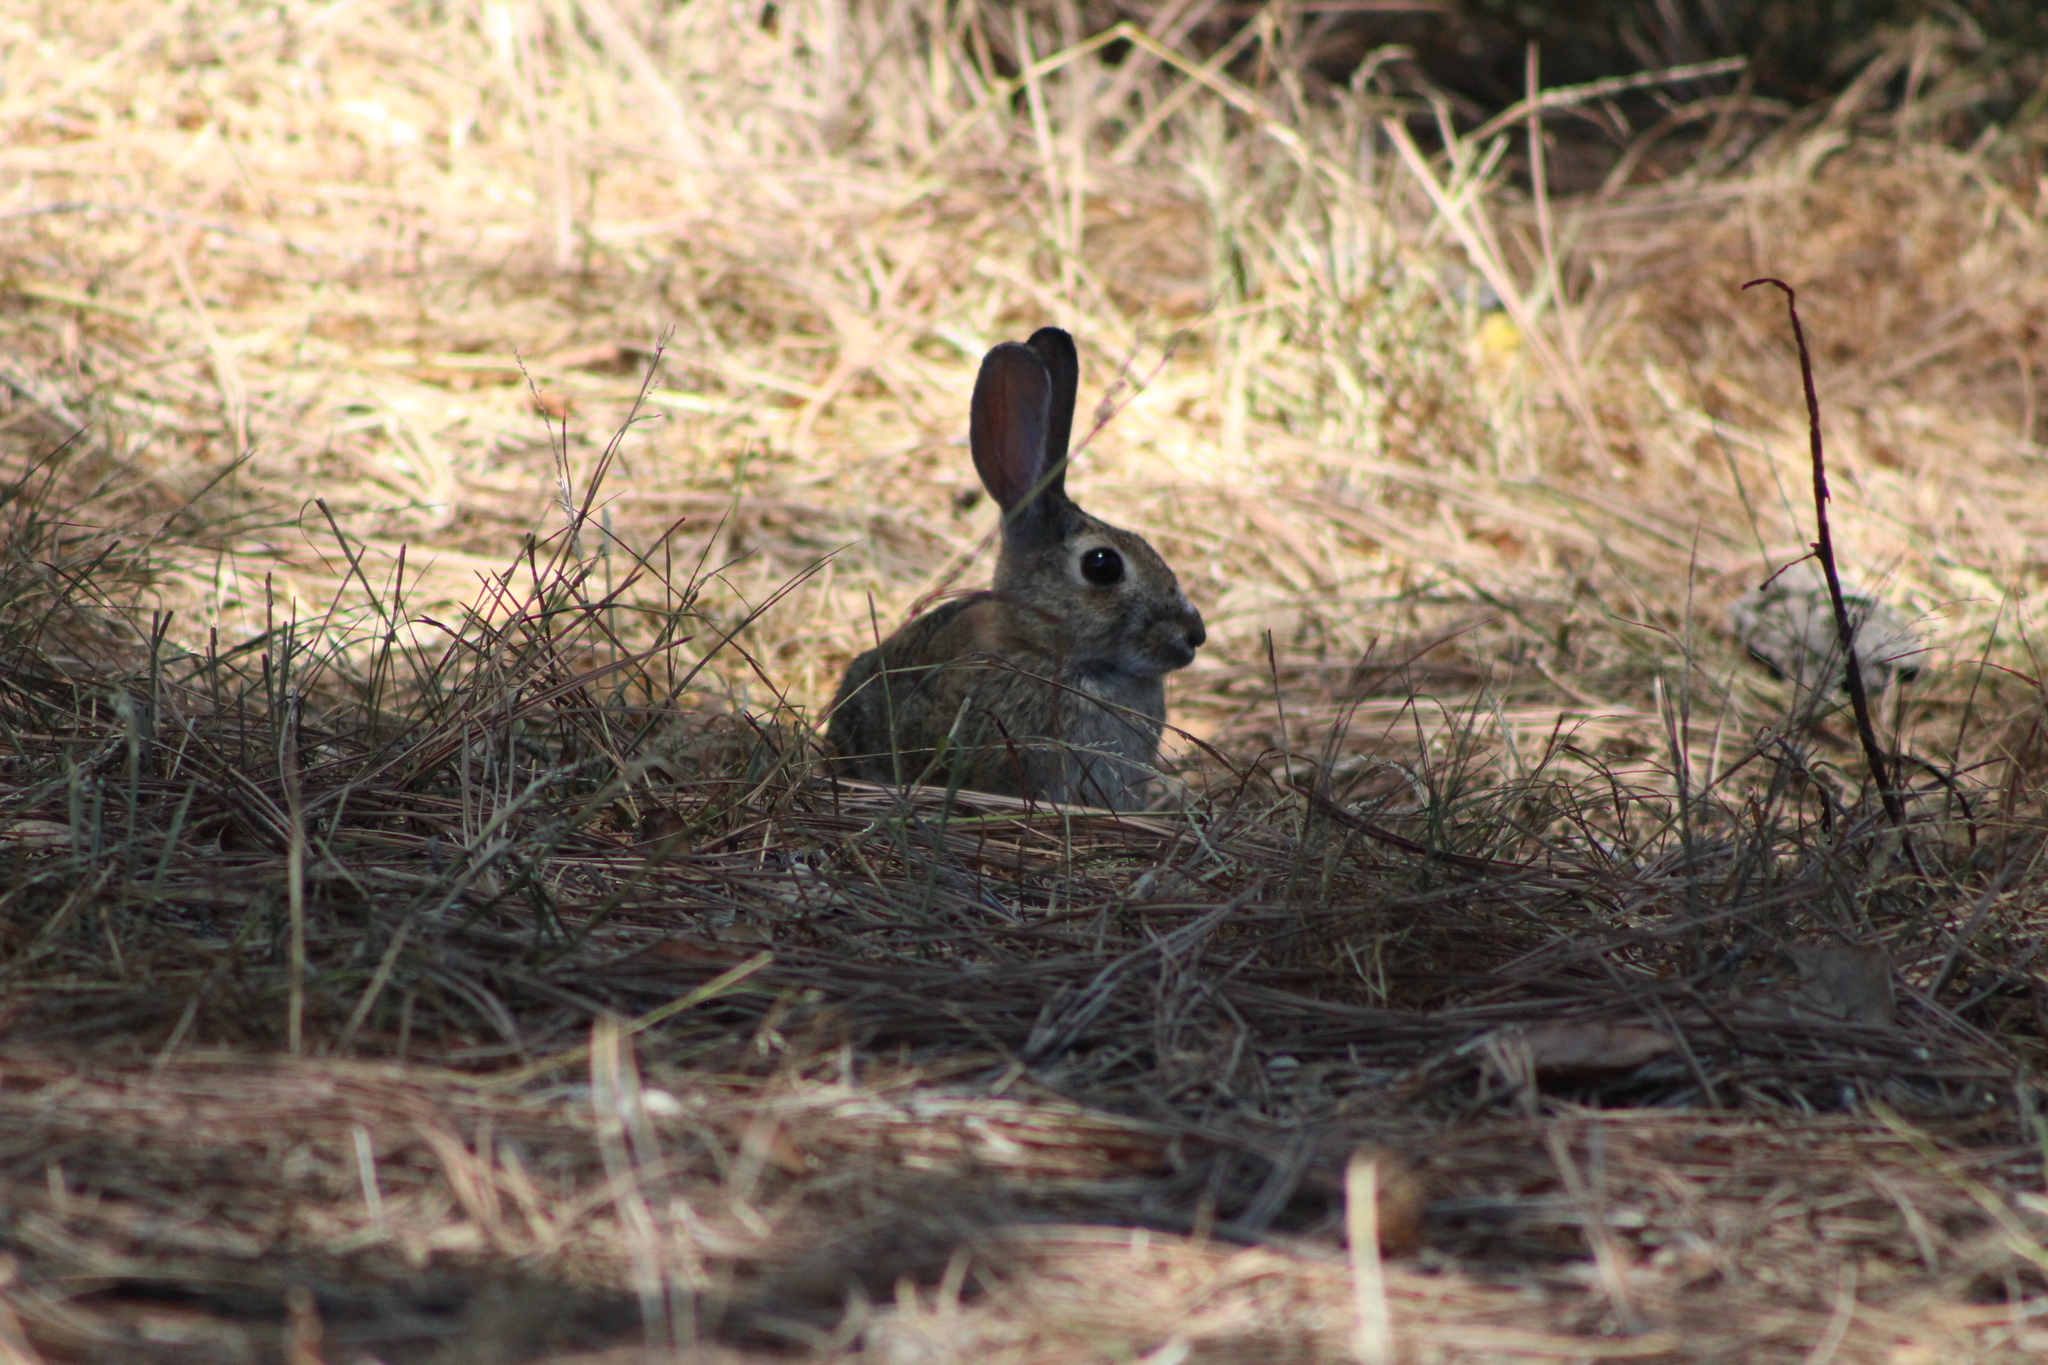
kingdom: Animalia
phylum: Chordata
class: Mammalia
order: Lagomorpha
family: Leporidae
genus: Sylvilagus
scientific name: Sylvilagus audubonii
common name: Desert cottontail
